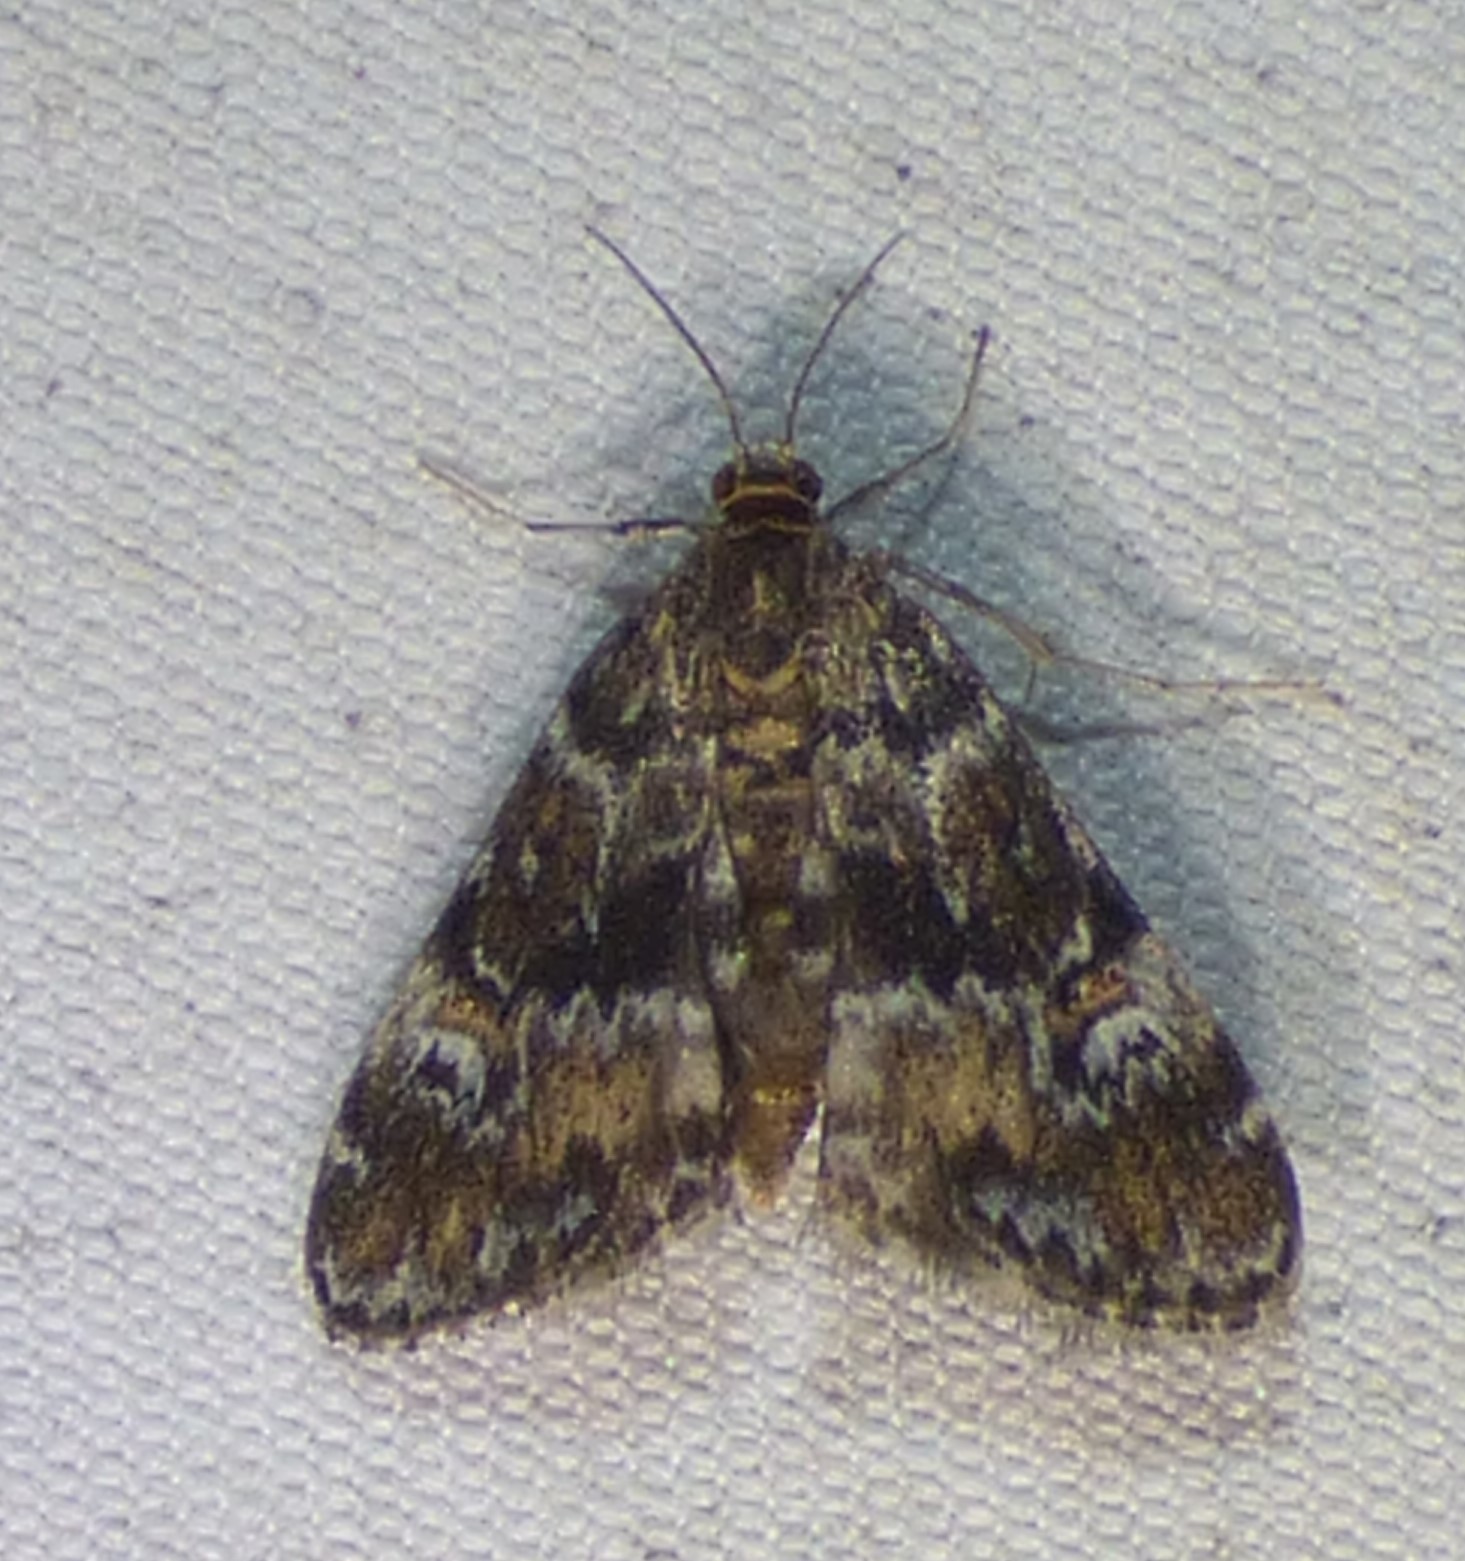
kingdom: Animalia
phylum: Arthropoda
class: Insecta
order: Lepidoptera
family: Crambidae
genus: Elophila
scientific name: Elophila obliteralis
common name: Waterlily leafcutter moth
